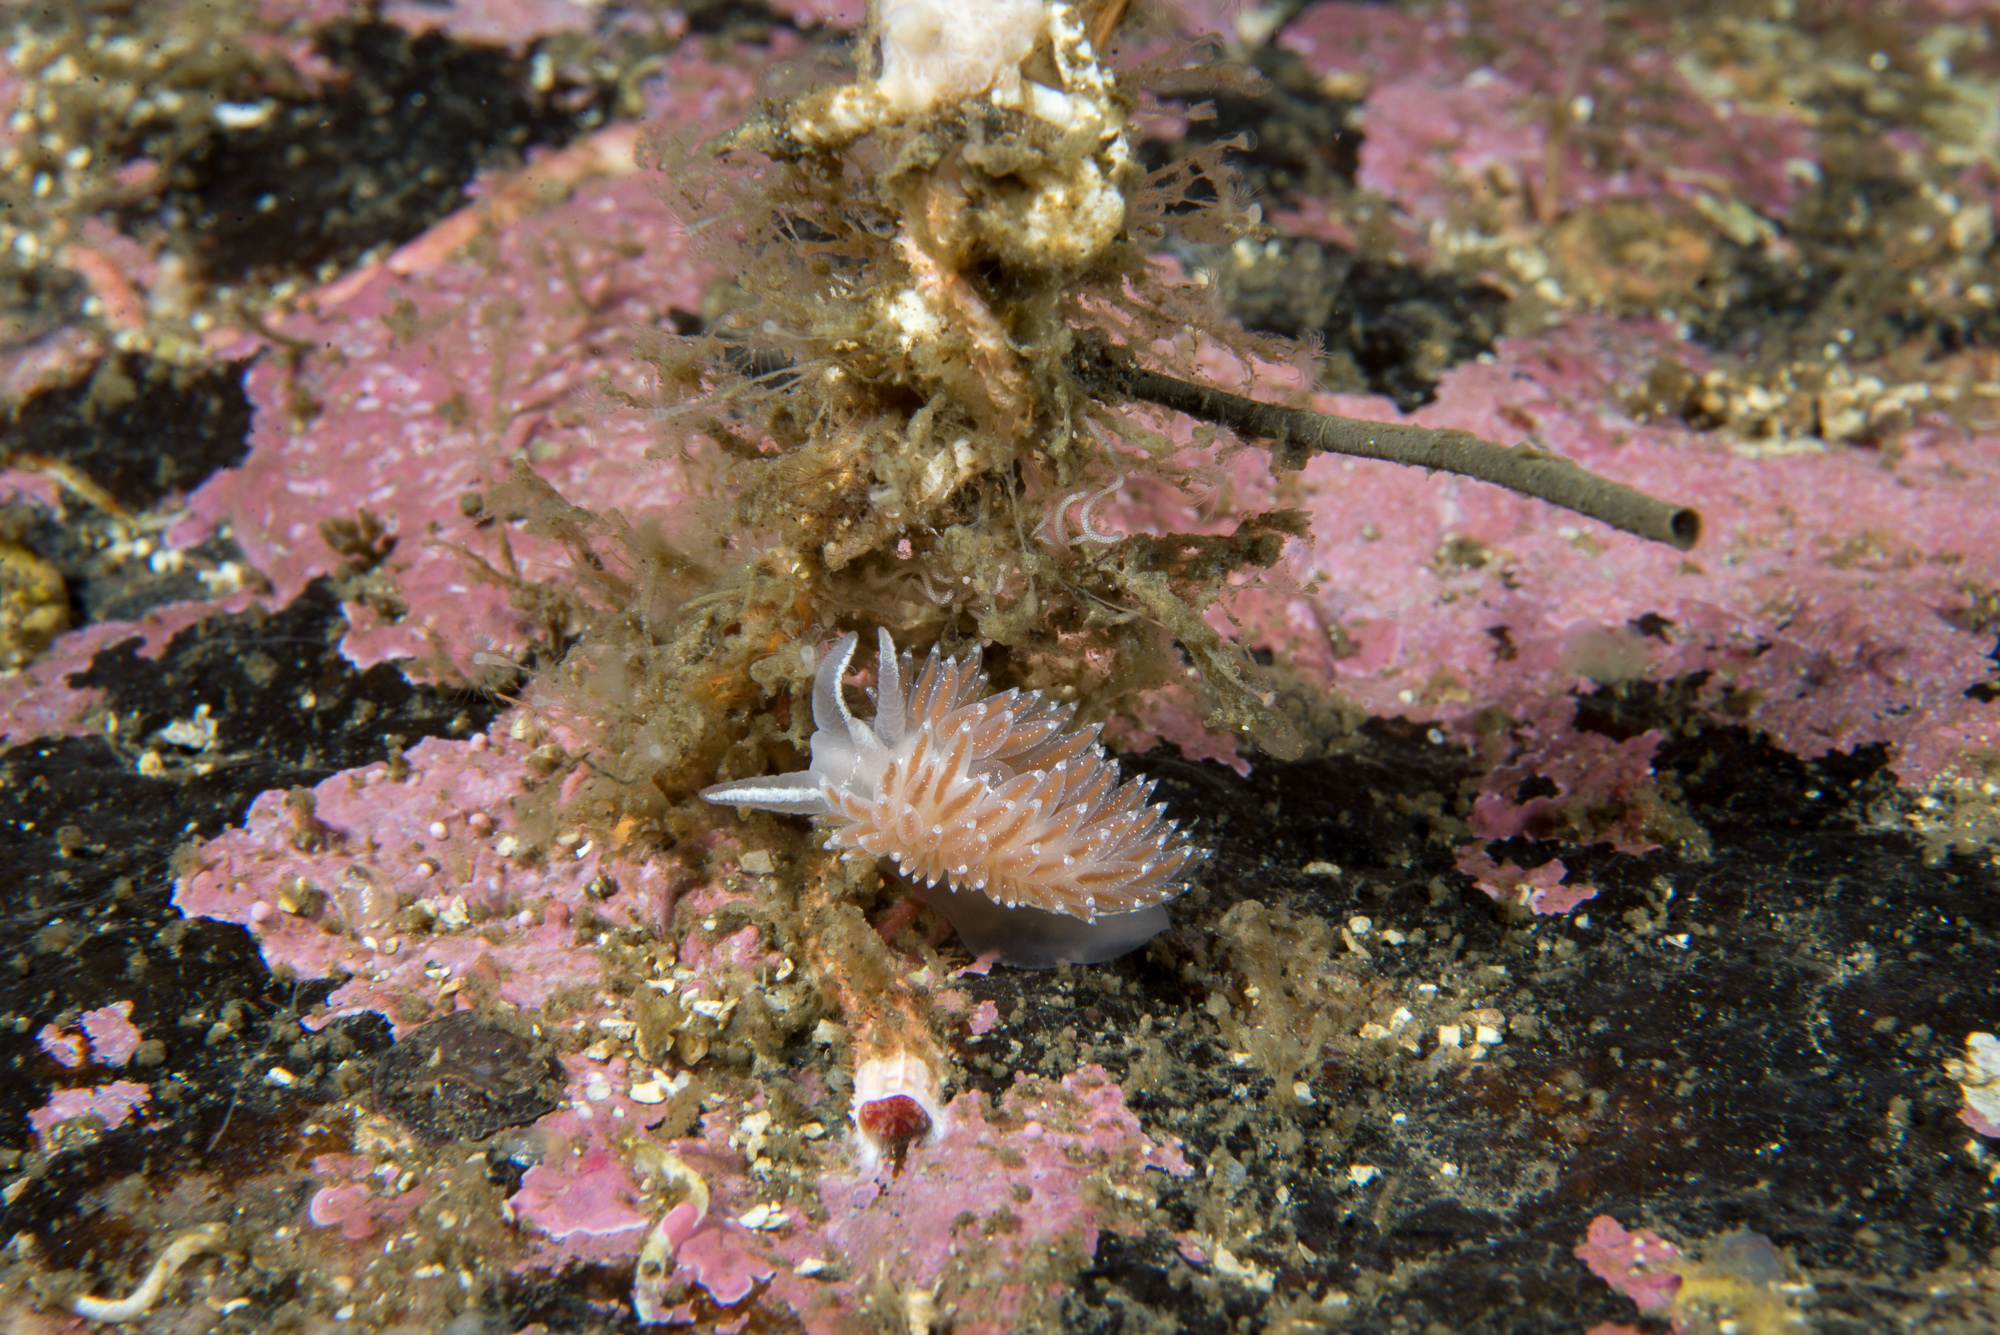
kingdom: Animalia
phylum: Mollusca
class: Gastropoda
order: Nudibranchia
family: Coryphellidae
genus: Coryphella
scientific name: Coryphella orjani
